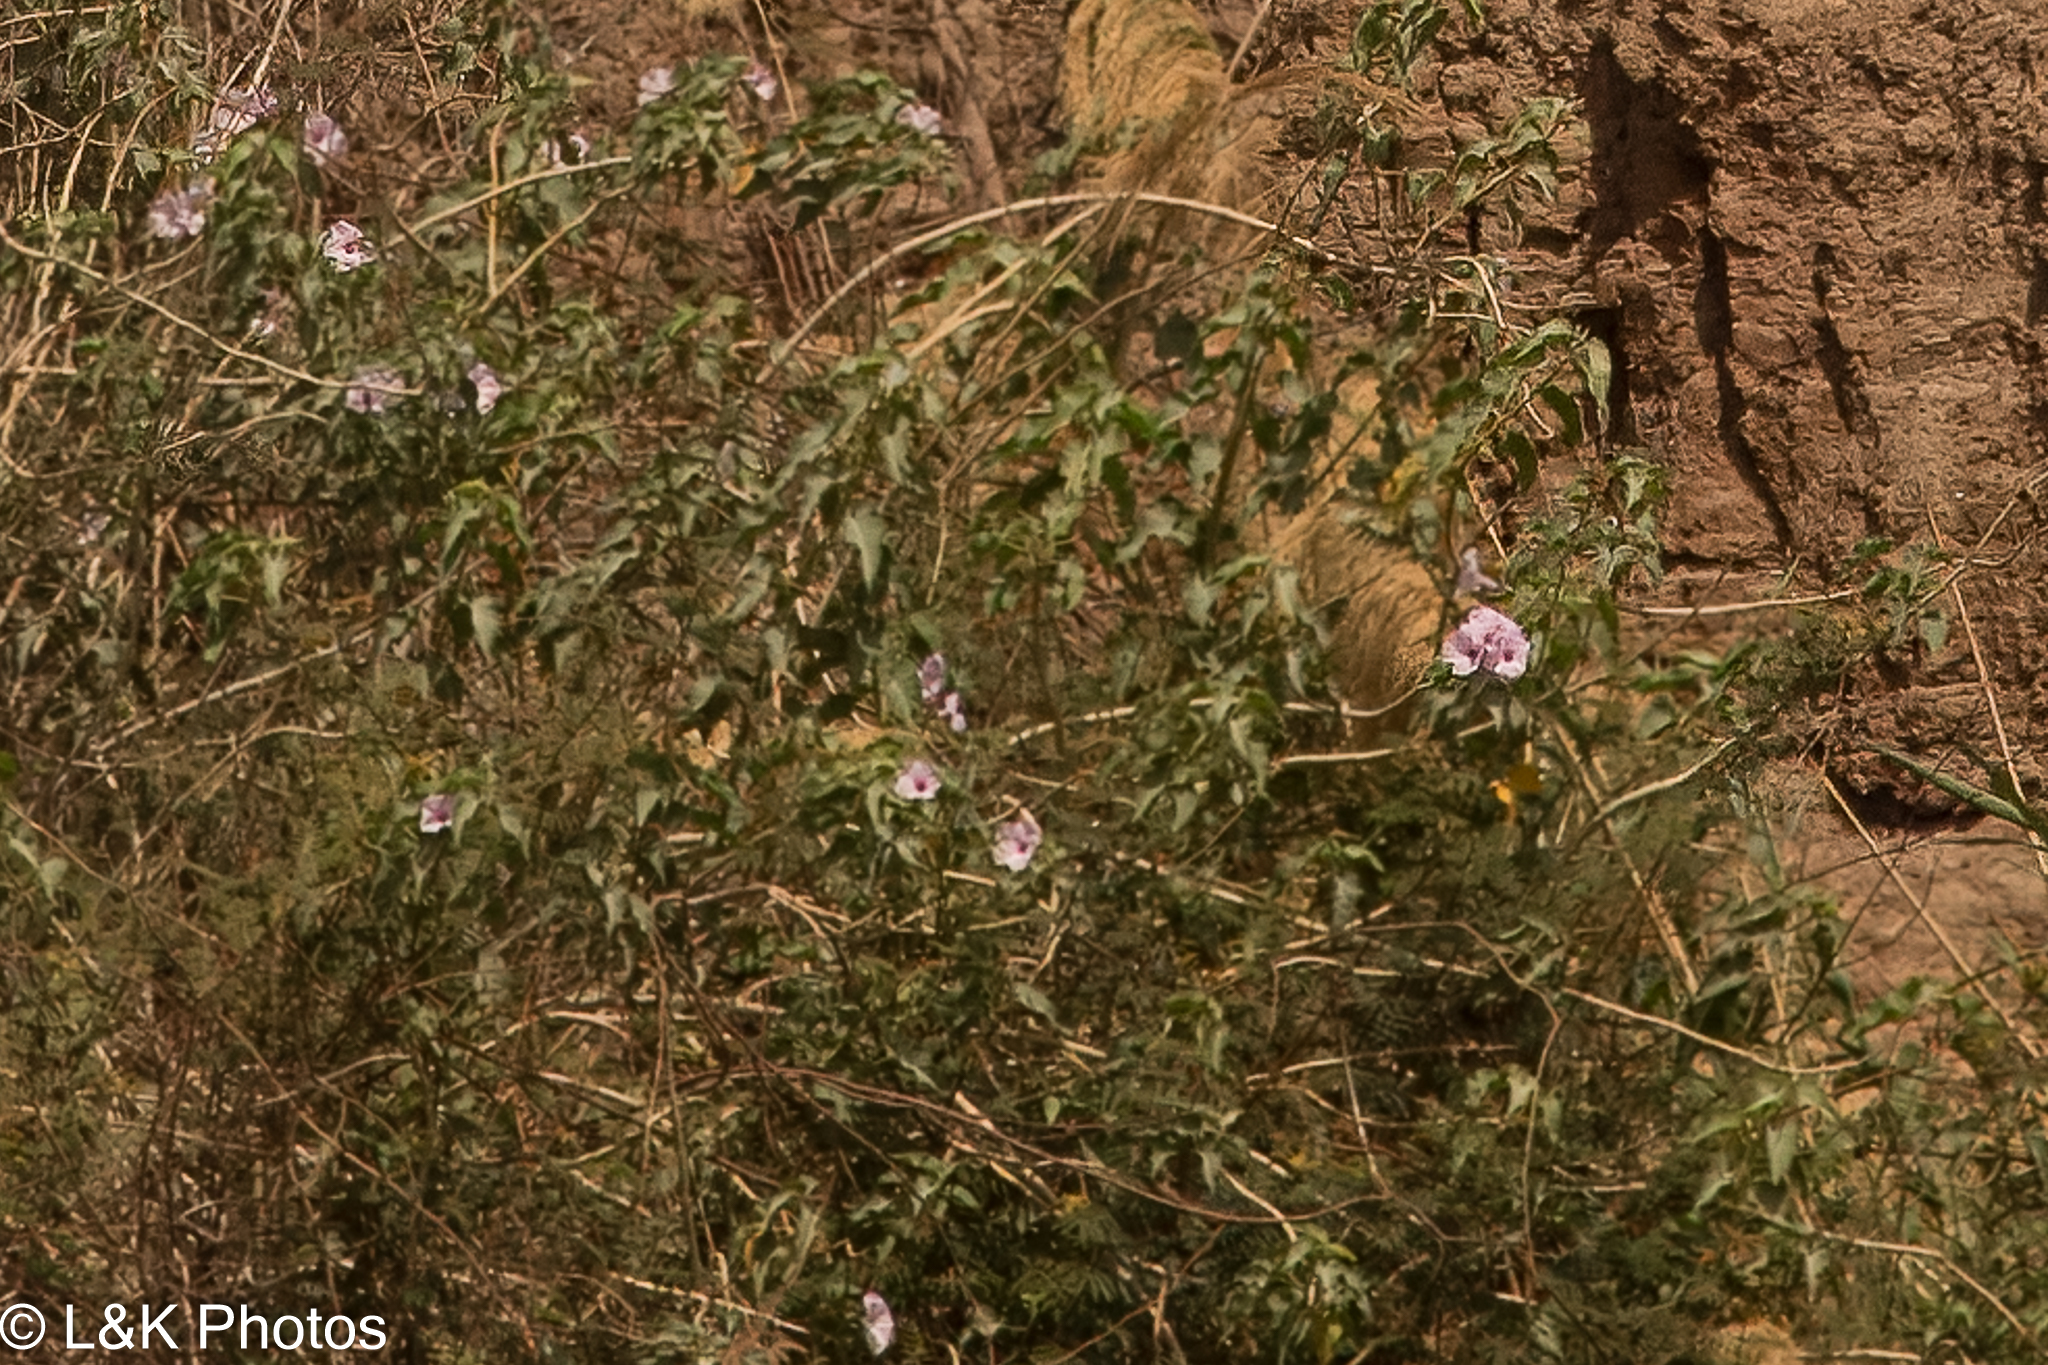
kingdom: Plantae
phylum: Tracheophyta
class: Magnoliopsida
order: Solanales
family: Convolvulaceae
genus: Ipomoea
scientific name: Ipomoea carnea
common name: Morning-glory
